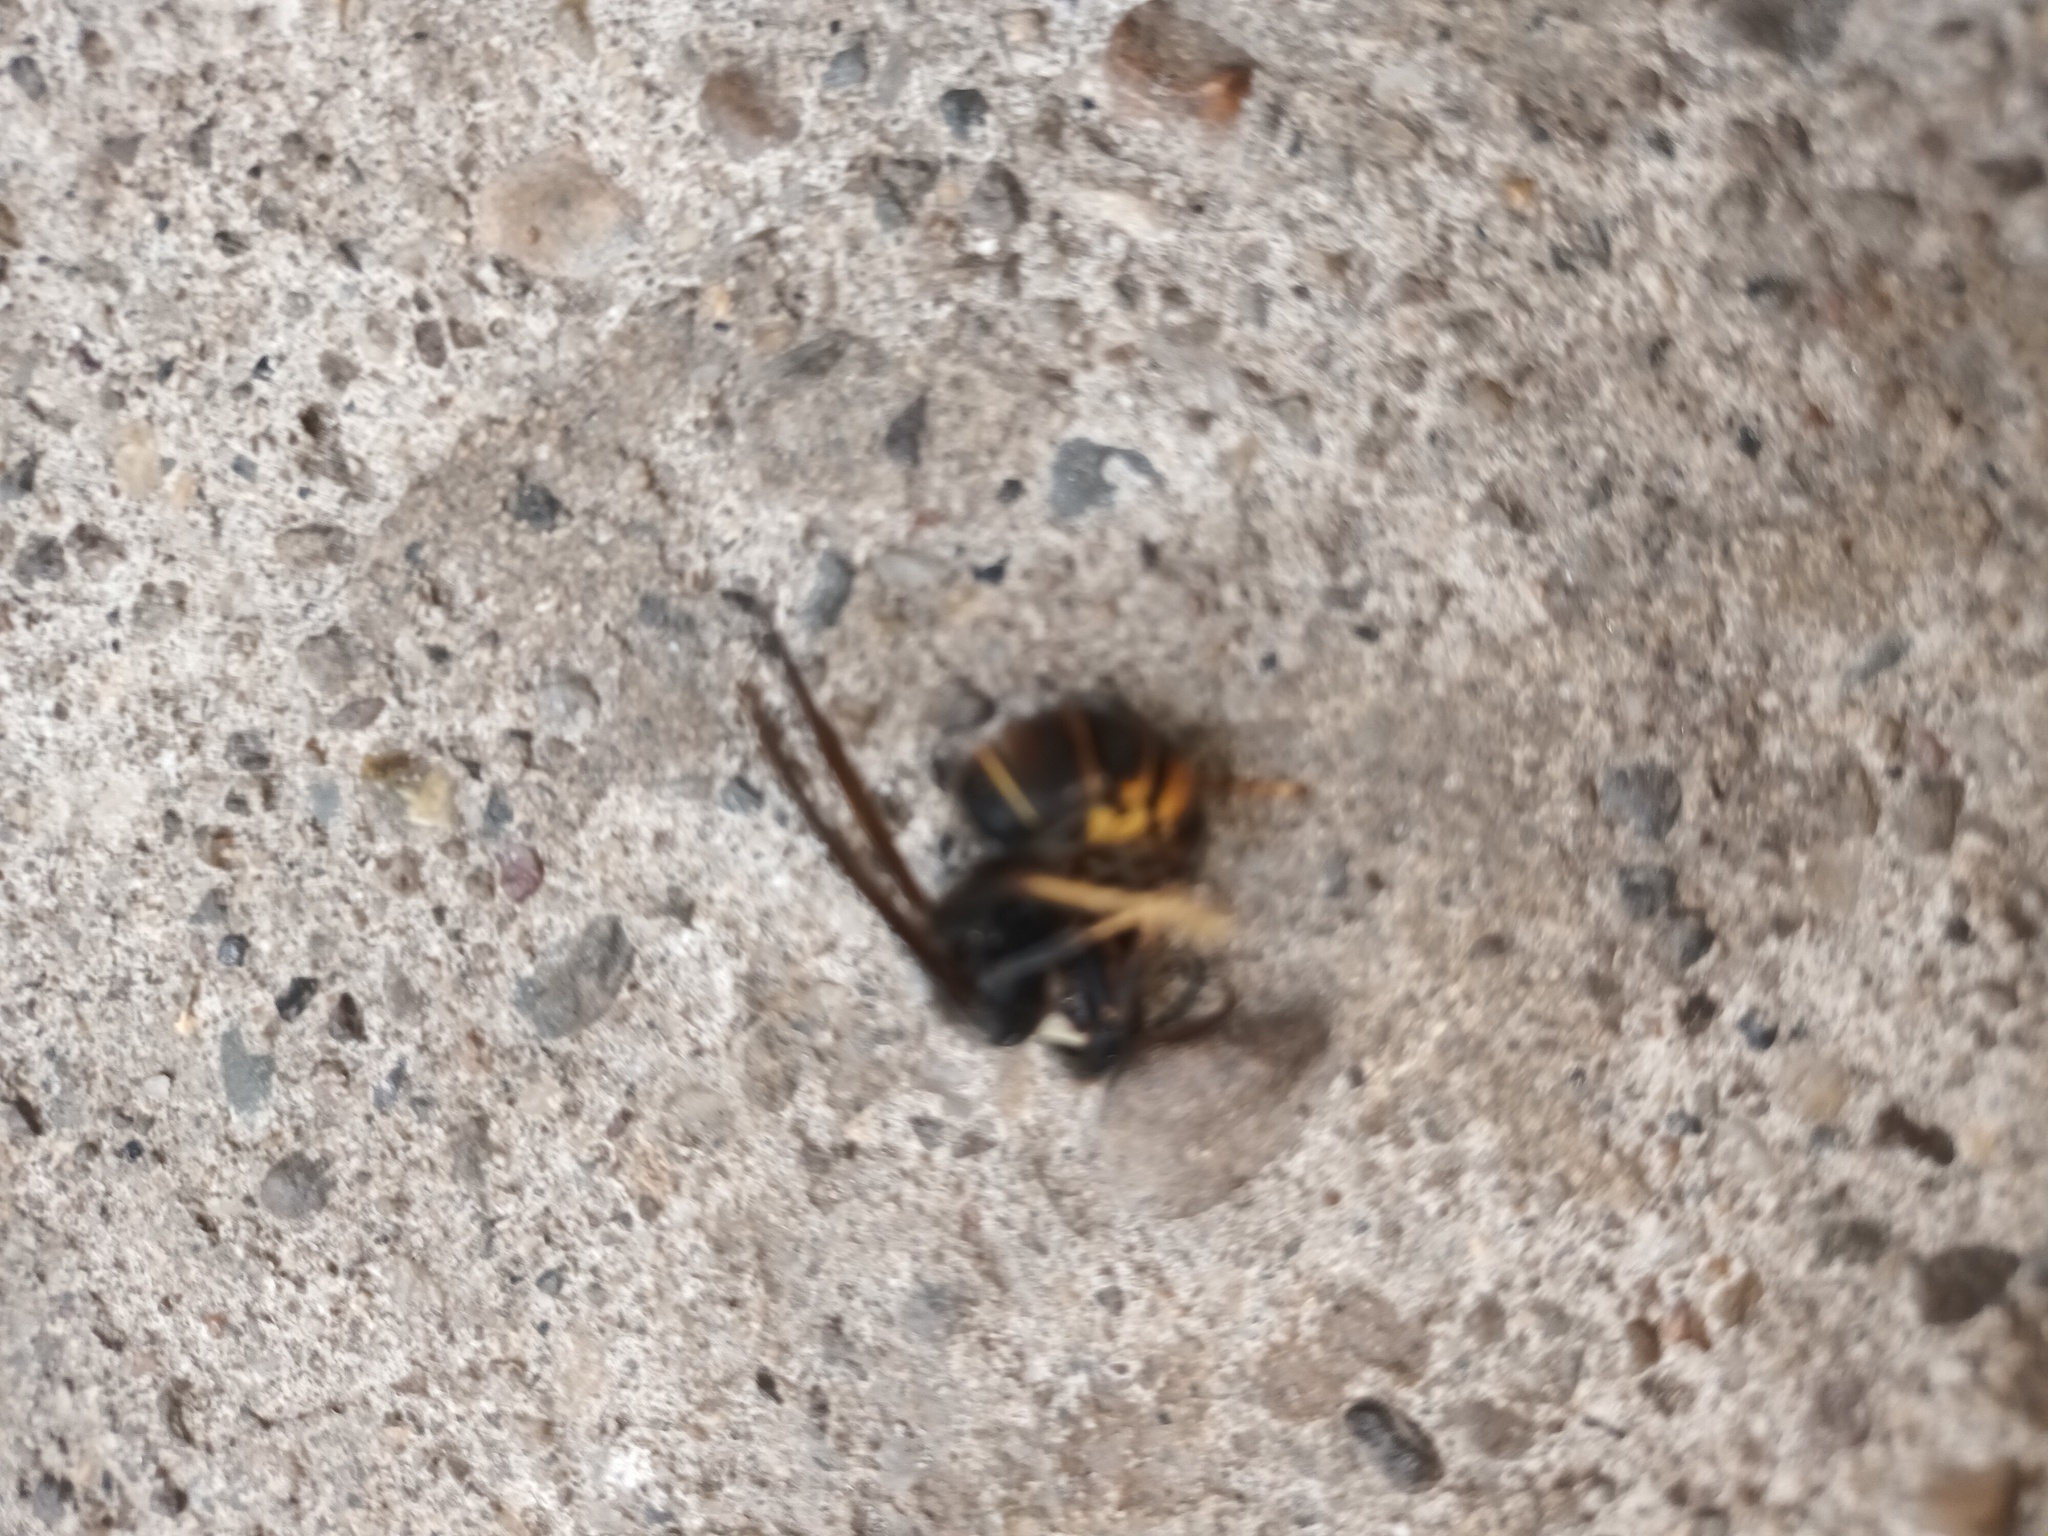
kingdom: Animalia
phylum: Arthropoda
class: Insecta
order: Hymenoptera
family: Vespidae
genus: Vespa
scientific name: Vespa velutina
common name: Asian hornet
